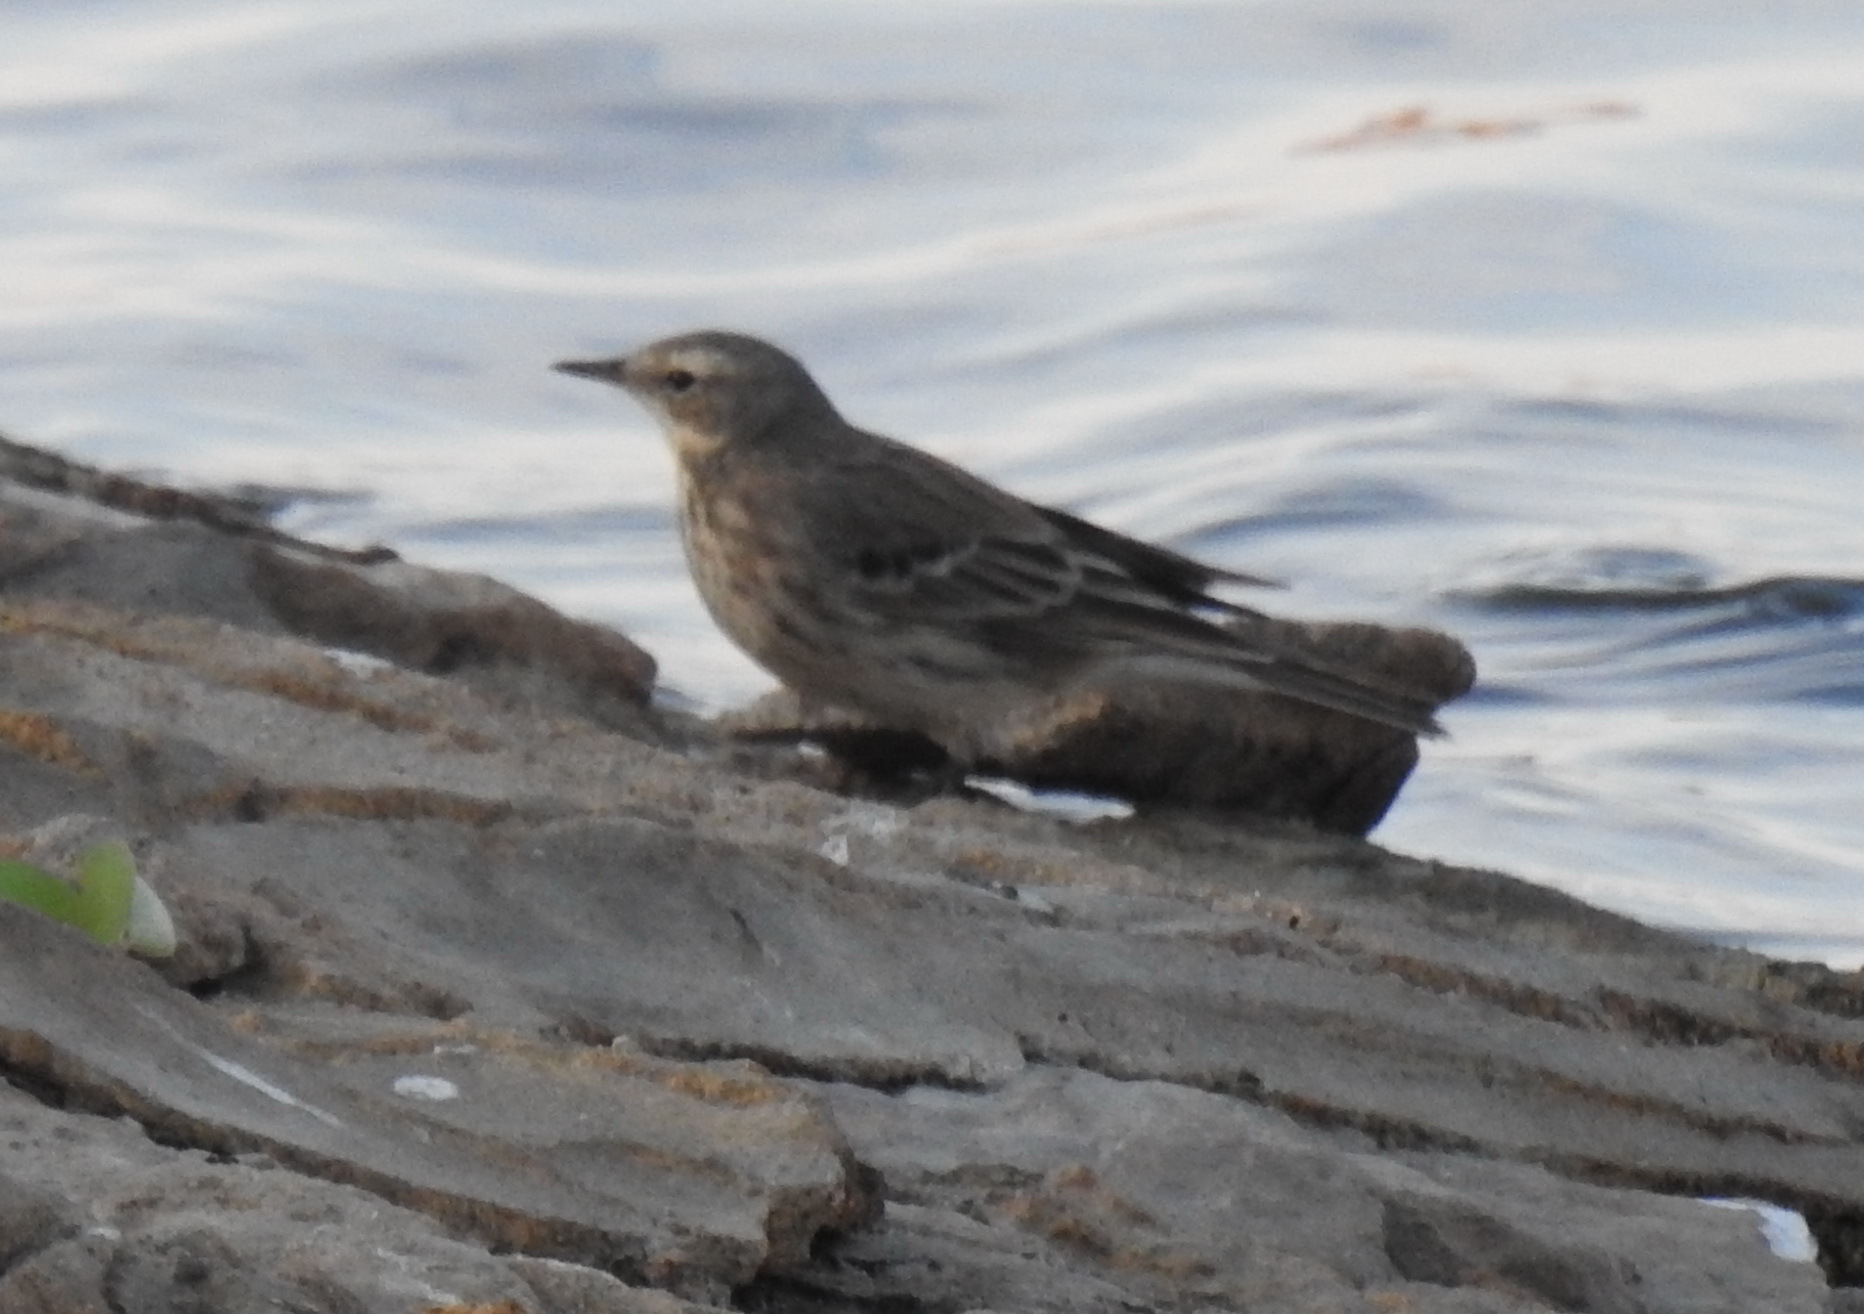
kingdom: Animalia
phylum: Chordata
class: Aves
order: Passeriformes
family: Motacillidae
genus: Anthus
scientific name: Anthus spinoletta
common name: Water pipit
